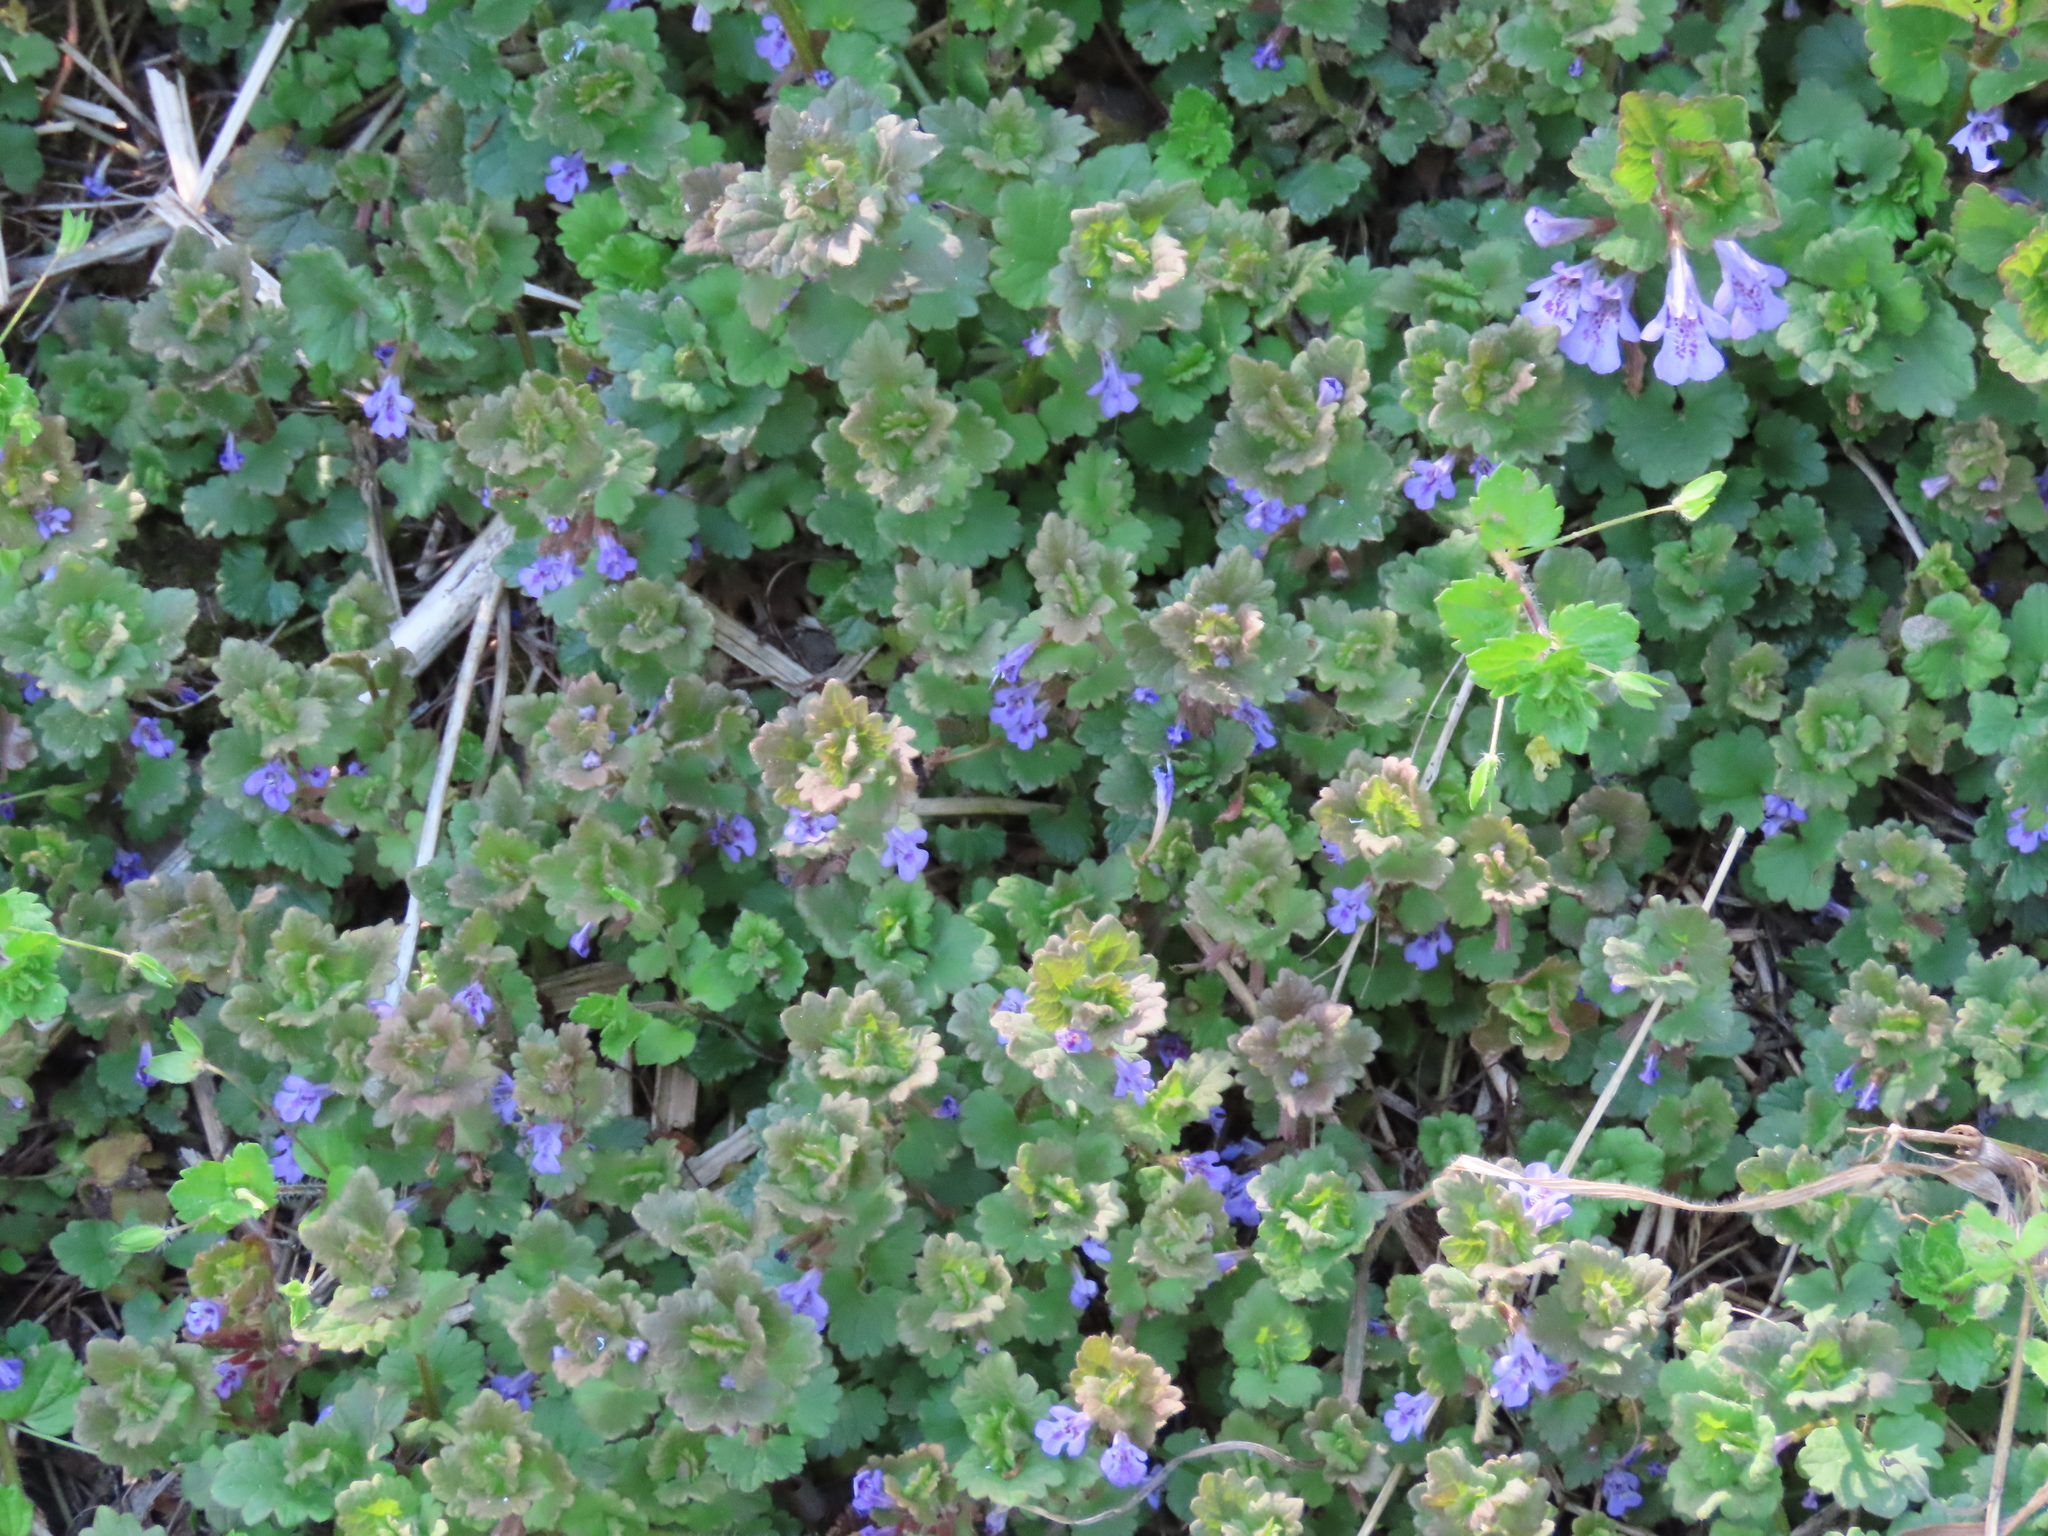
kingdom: Plantae
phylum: Tracheophyta
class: Magnoliopsida
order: Lamiales
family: Lamiaceae
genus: Glechoma
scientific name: Glechoma hederacea
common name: Ground ivy
